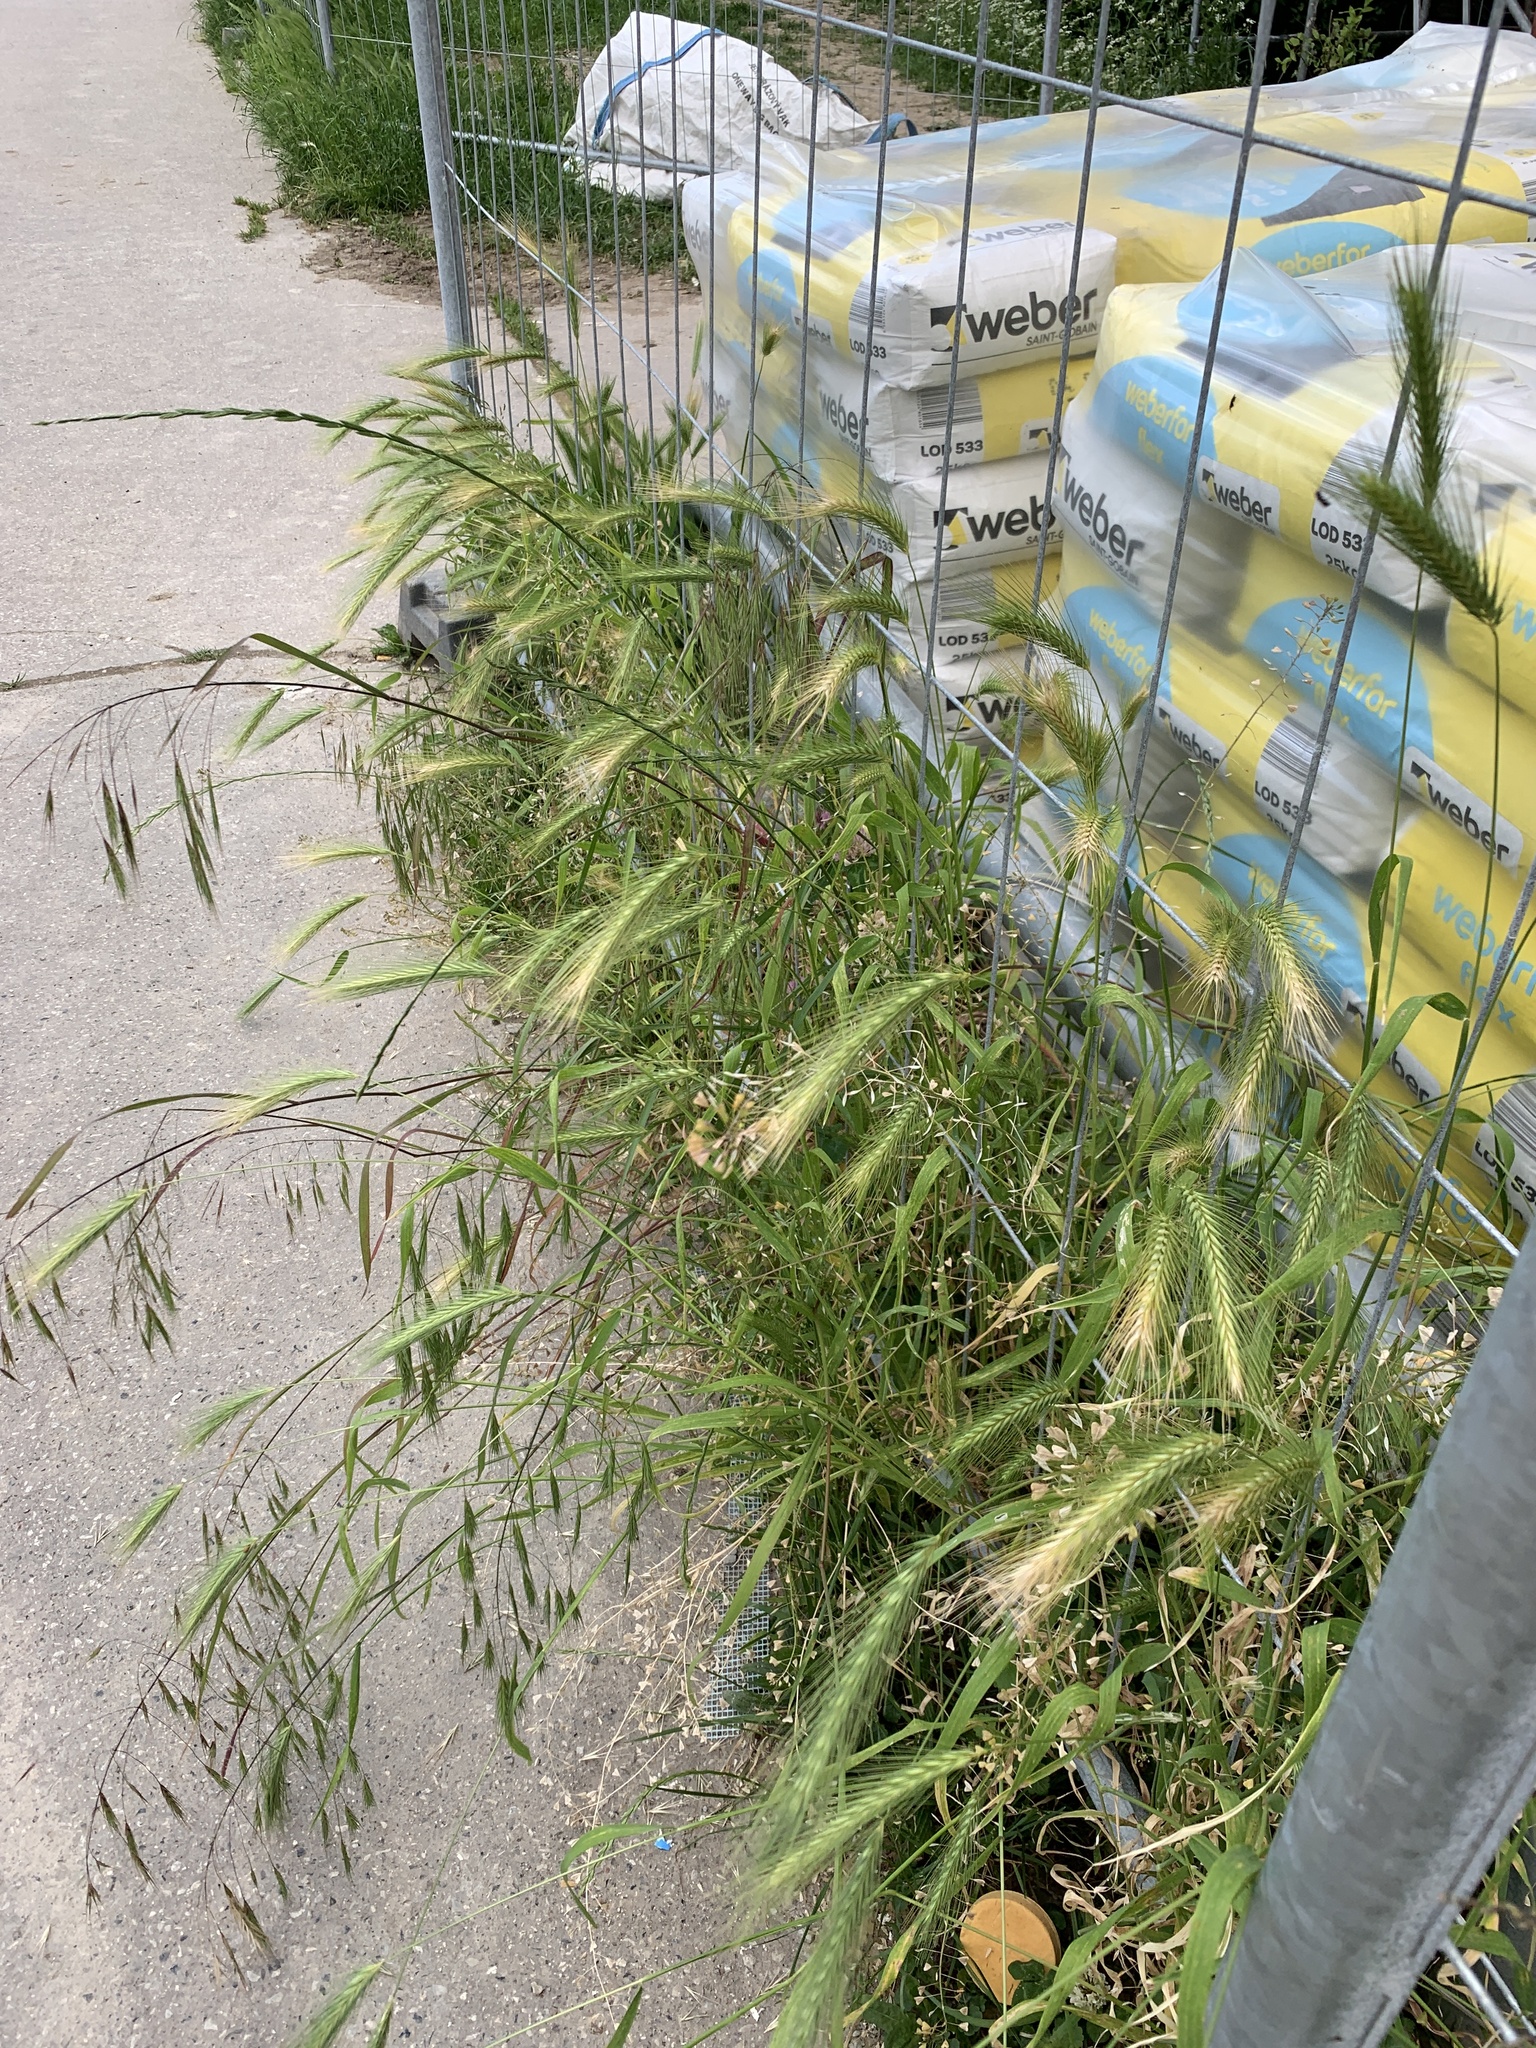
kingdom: Plantae
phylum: Tracheophyta
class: Liliopsida
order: Poales
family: Poaceae
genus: Hordeum
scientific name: Hordeum murinum
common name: Wall barley
